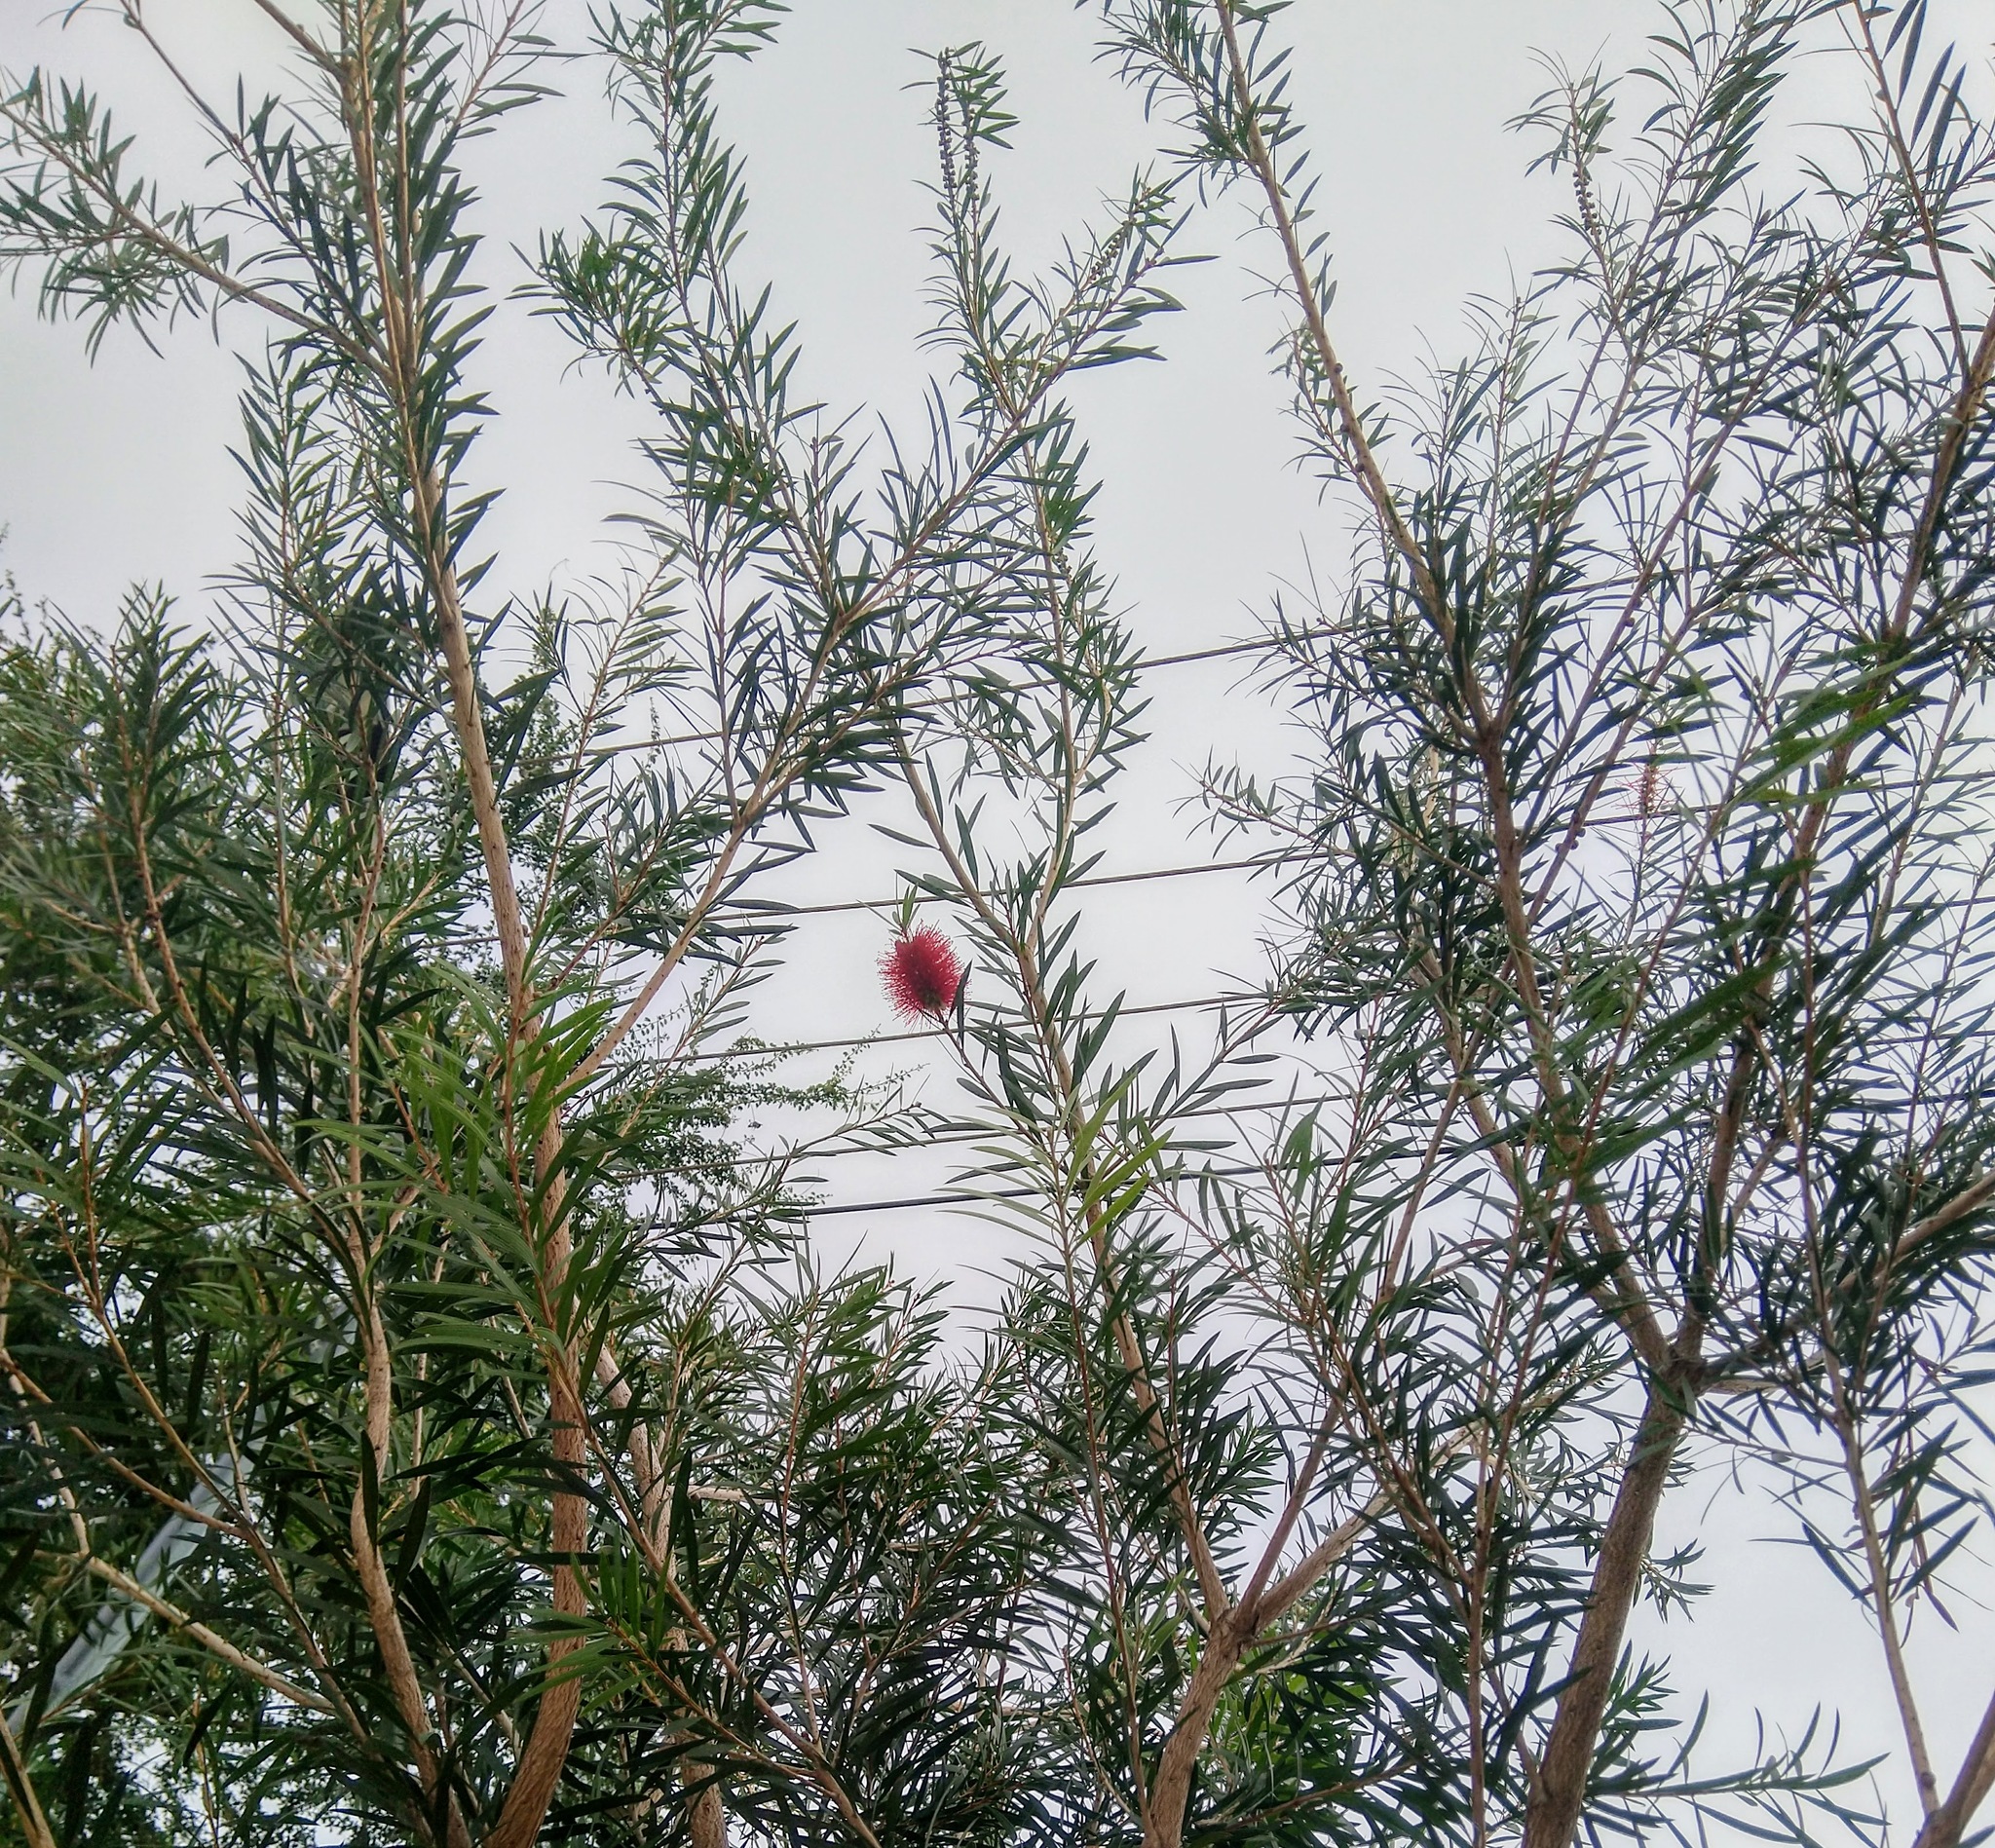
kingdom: Plantae
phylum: Tracheophyta
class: Magnoliopsida
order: Myrtales
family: Myrtaceae
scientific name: Myrtaceae
